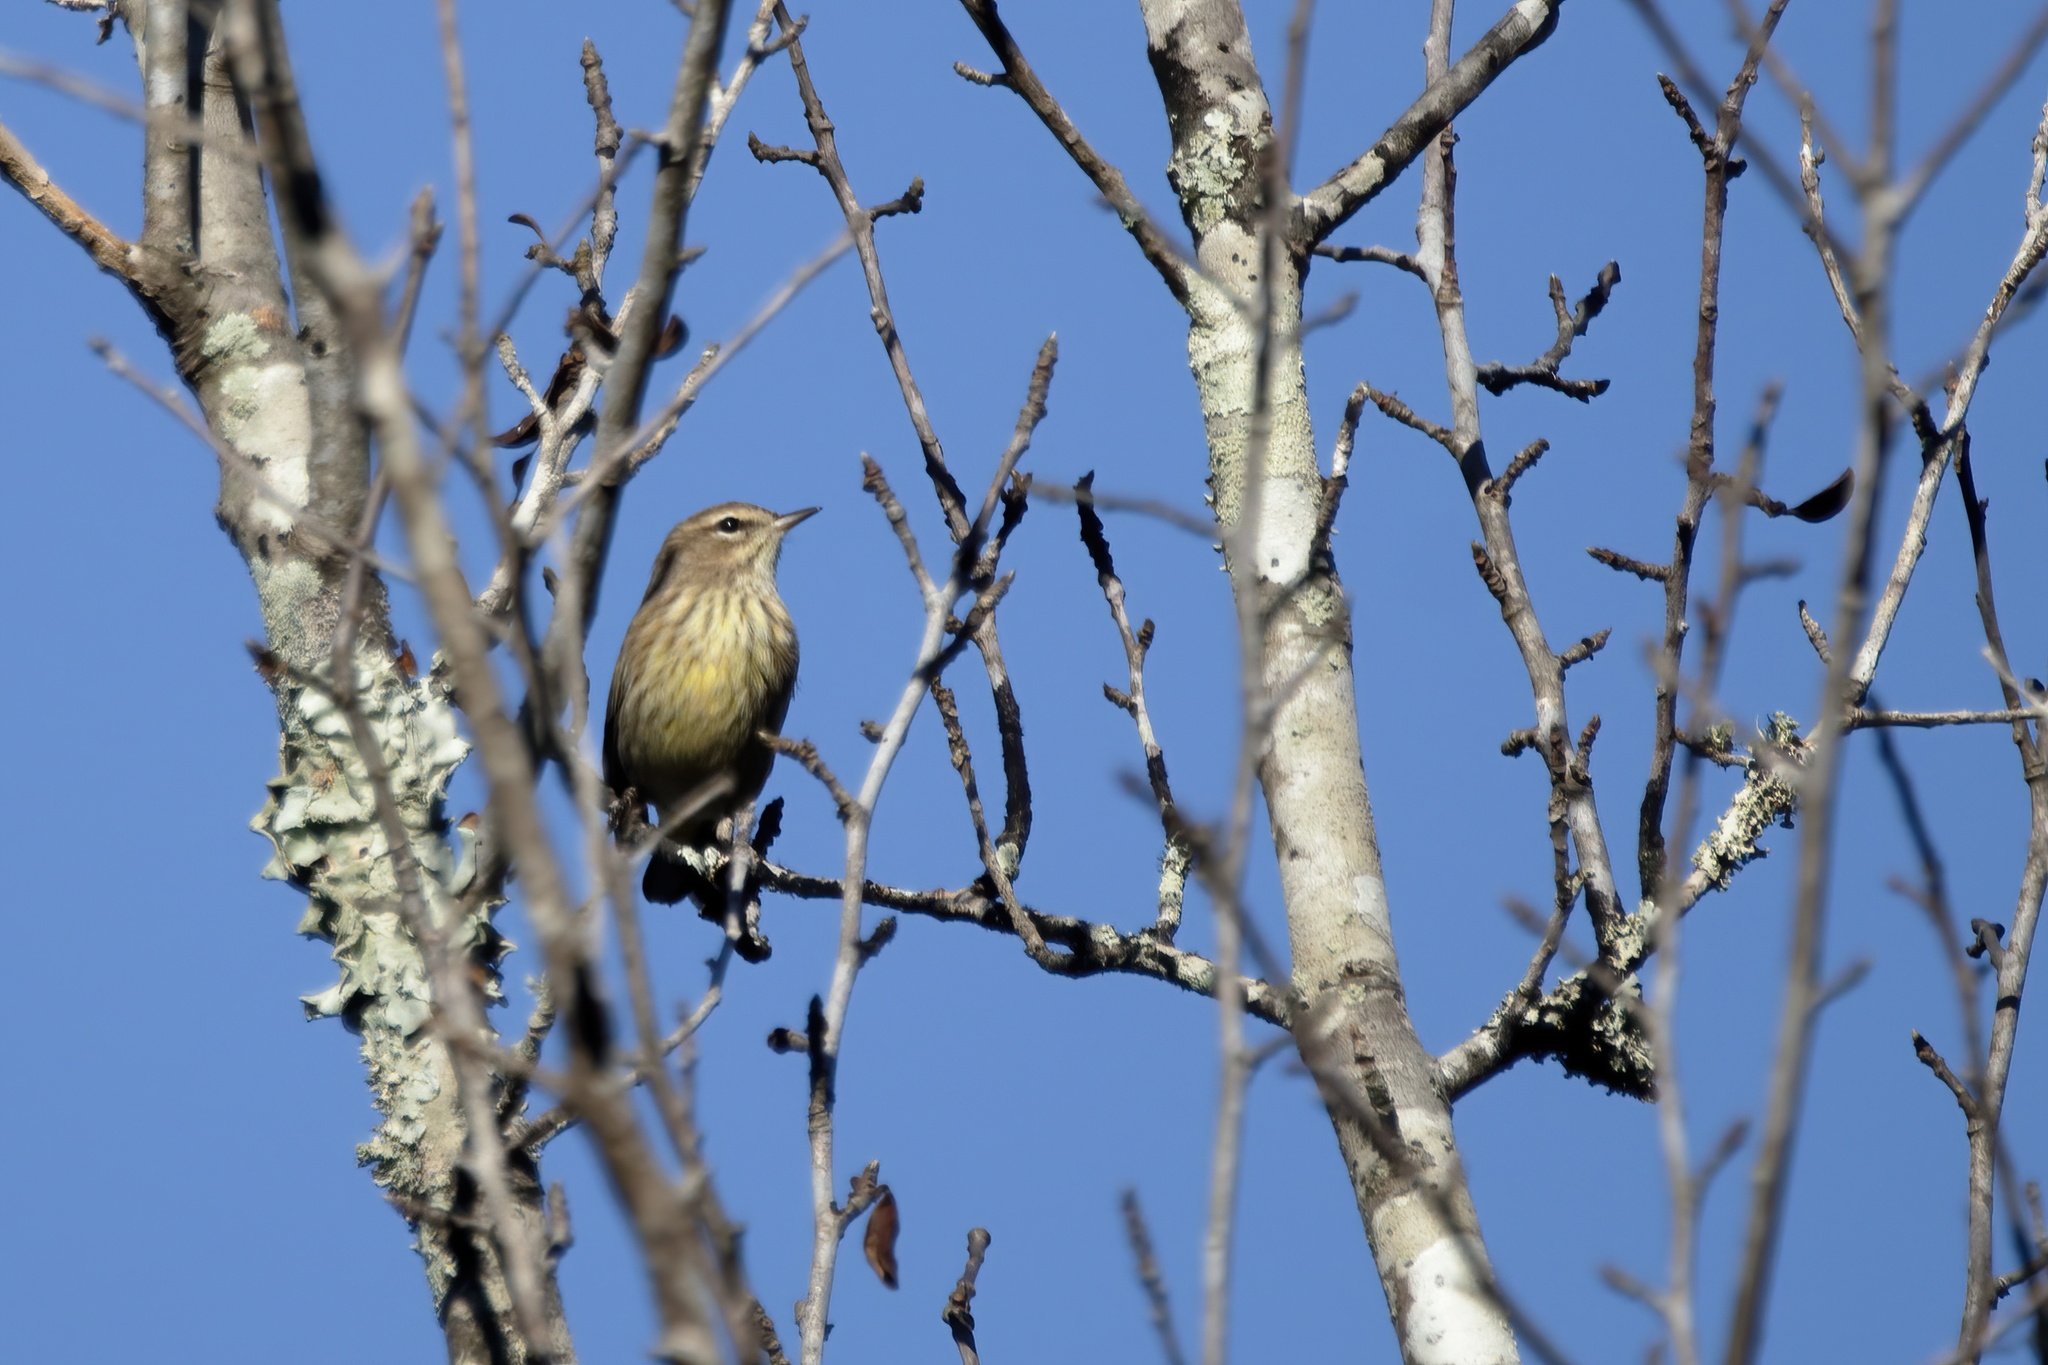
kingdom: Animalia
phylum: Chordata
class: Aves
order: Passeriformes
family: Parulidae
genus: Setophaga
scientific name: Setophaga palmarum
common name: Palm warbler
